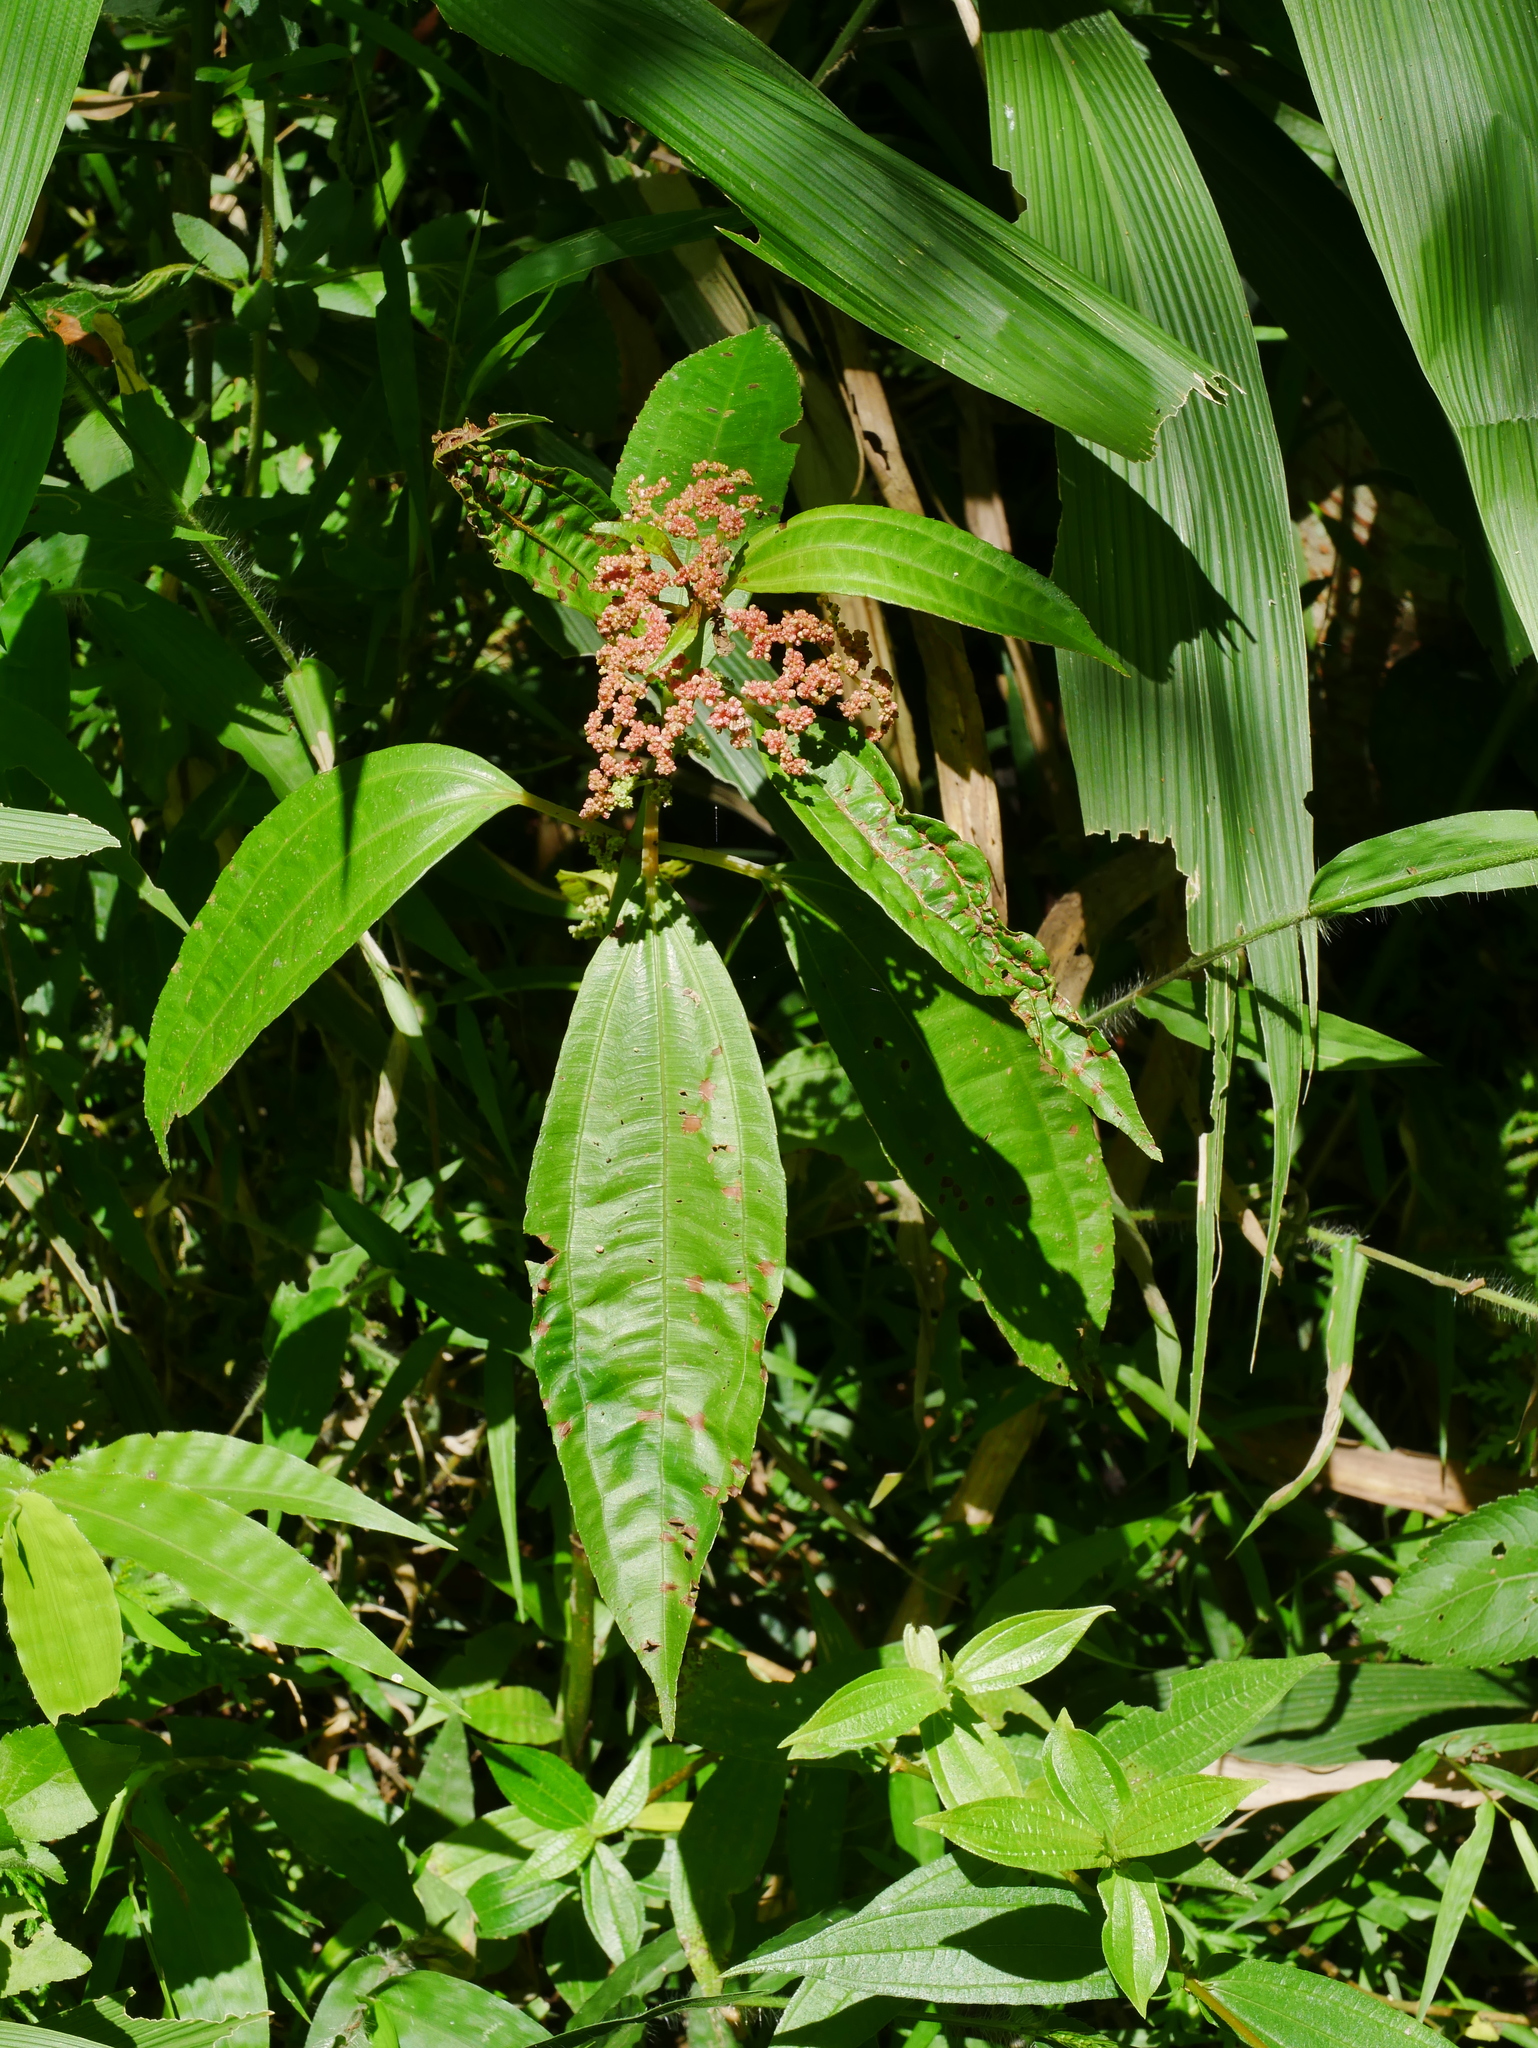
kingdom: Plantae
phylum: Tracheophyta
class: Magnoliopsida
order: Rosales
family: Urticaceae
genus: Pilea
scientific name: Pilea rotundinucula
